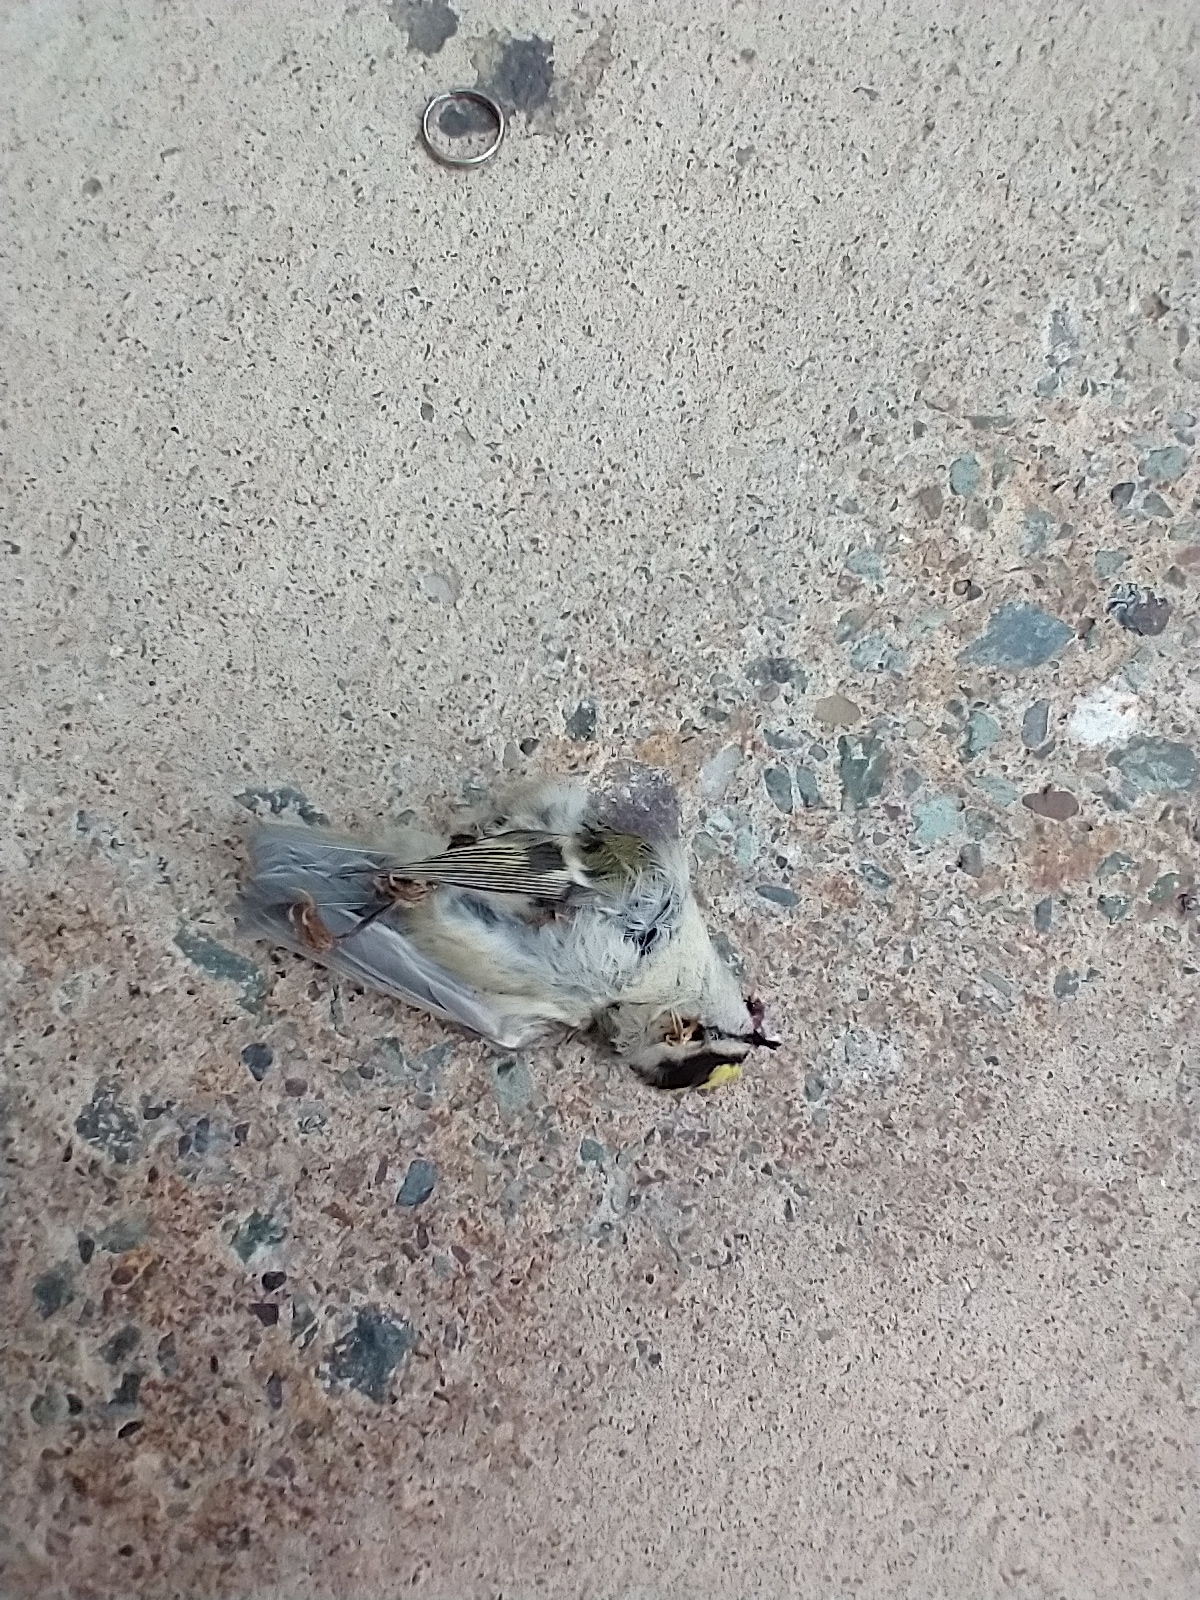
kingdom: Animalia
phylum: Chordata
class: Aves
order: Passeriformes
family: Regulidae
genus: Regulus
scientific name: Regulus satrapa
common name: Golden-crowned kinglet
